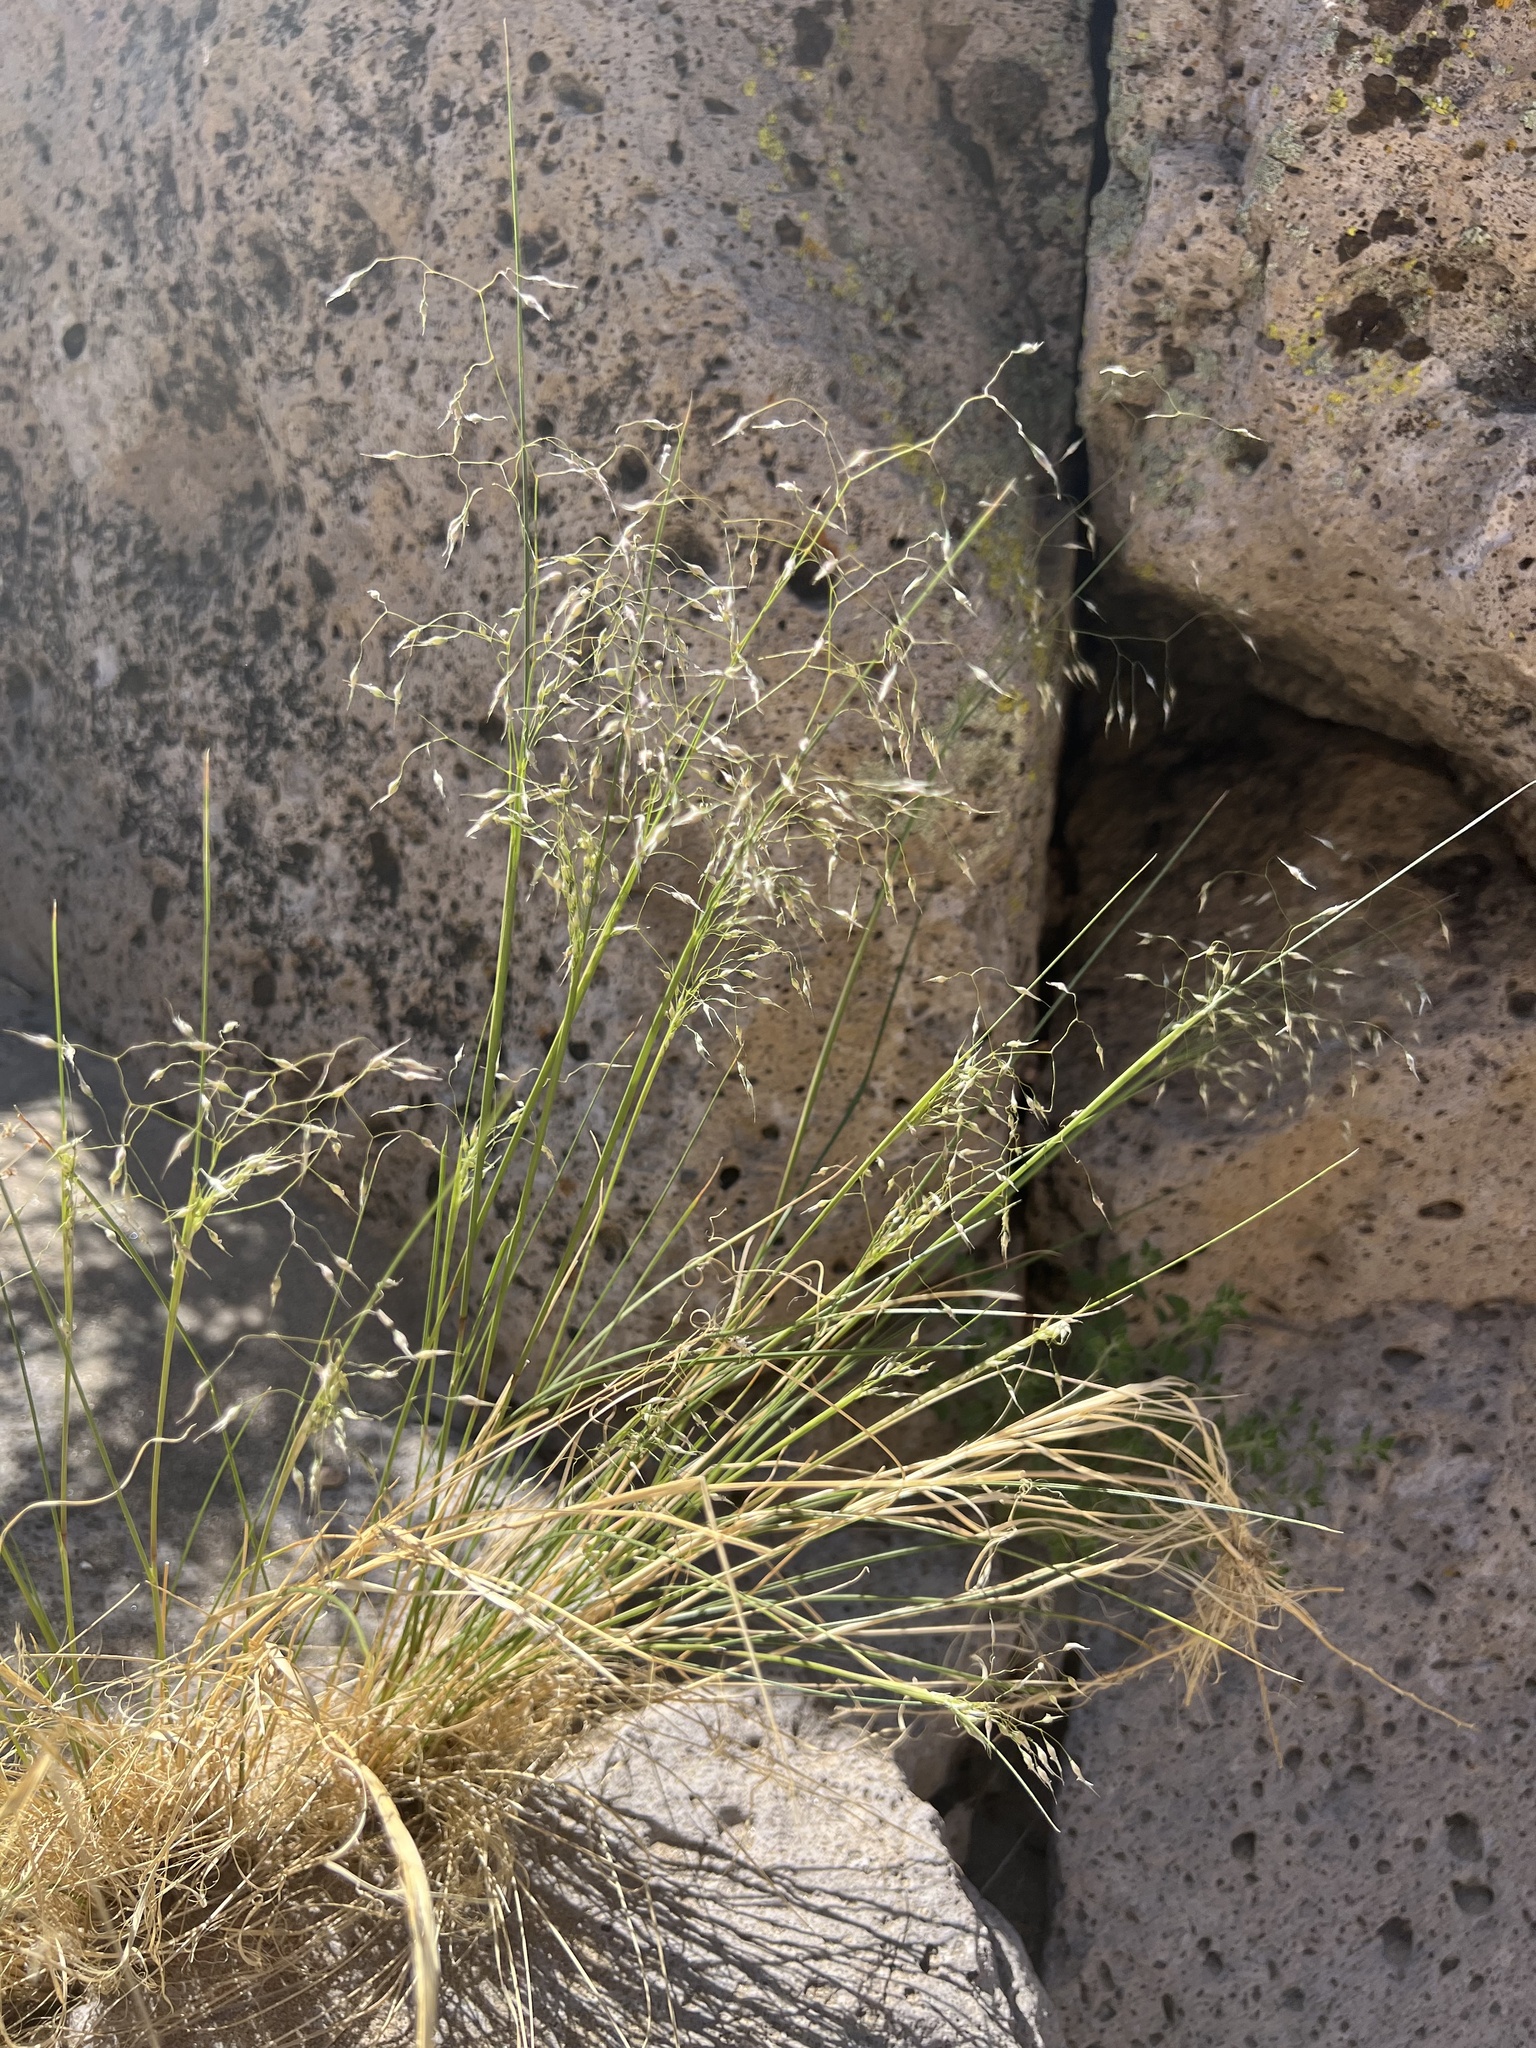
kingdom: Plantae
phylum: Tracheophyta
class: Liliopsida
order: Poales
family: Poaceae
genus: Eriocoma
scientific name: Eriocoma hymenoides
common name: Indian mountain ricegrass
